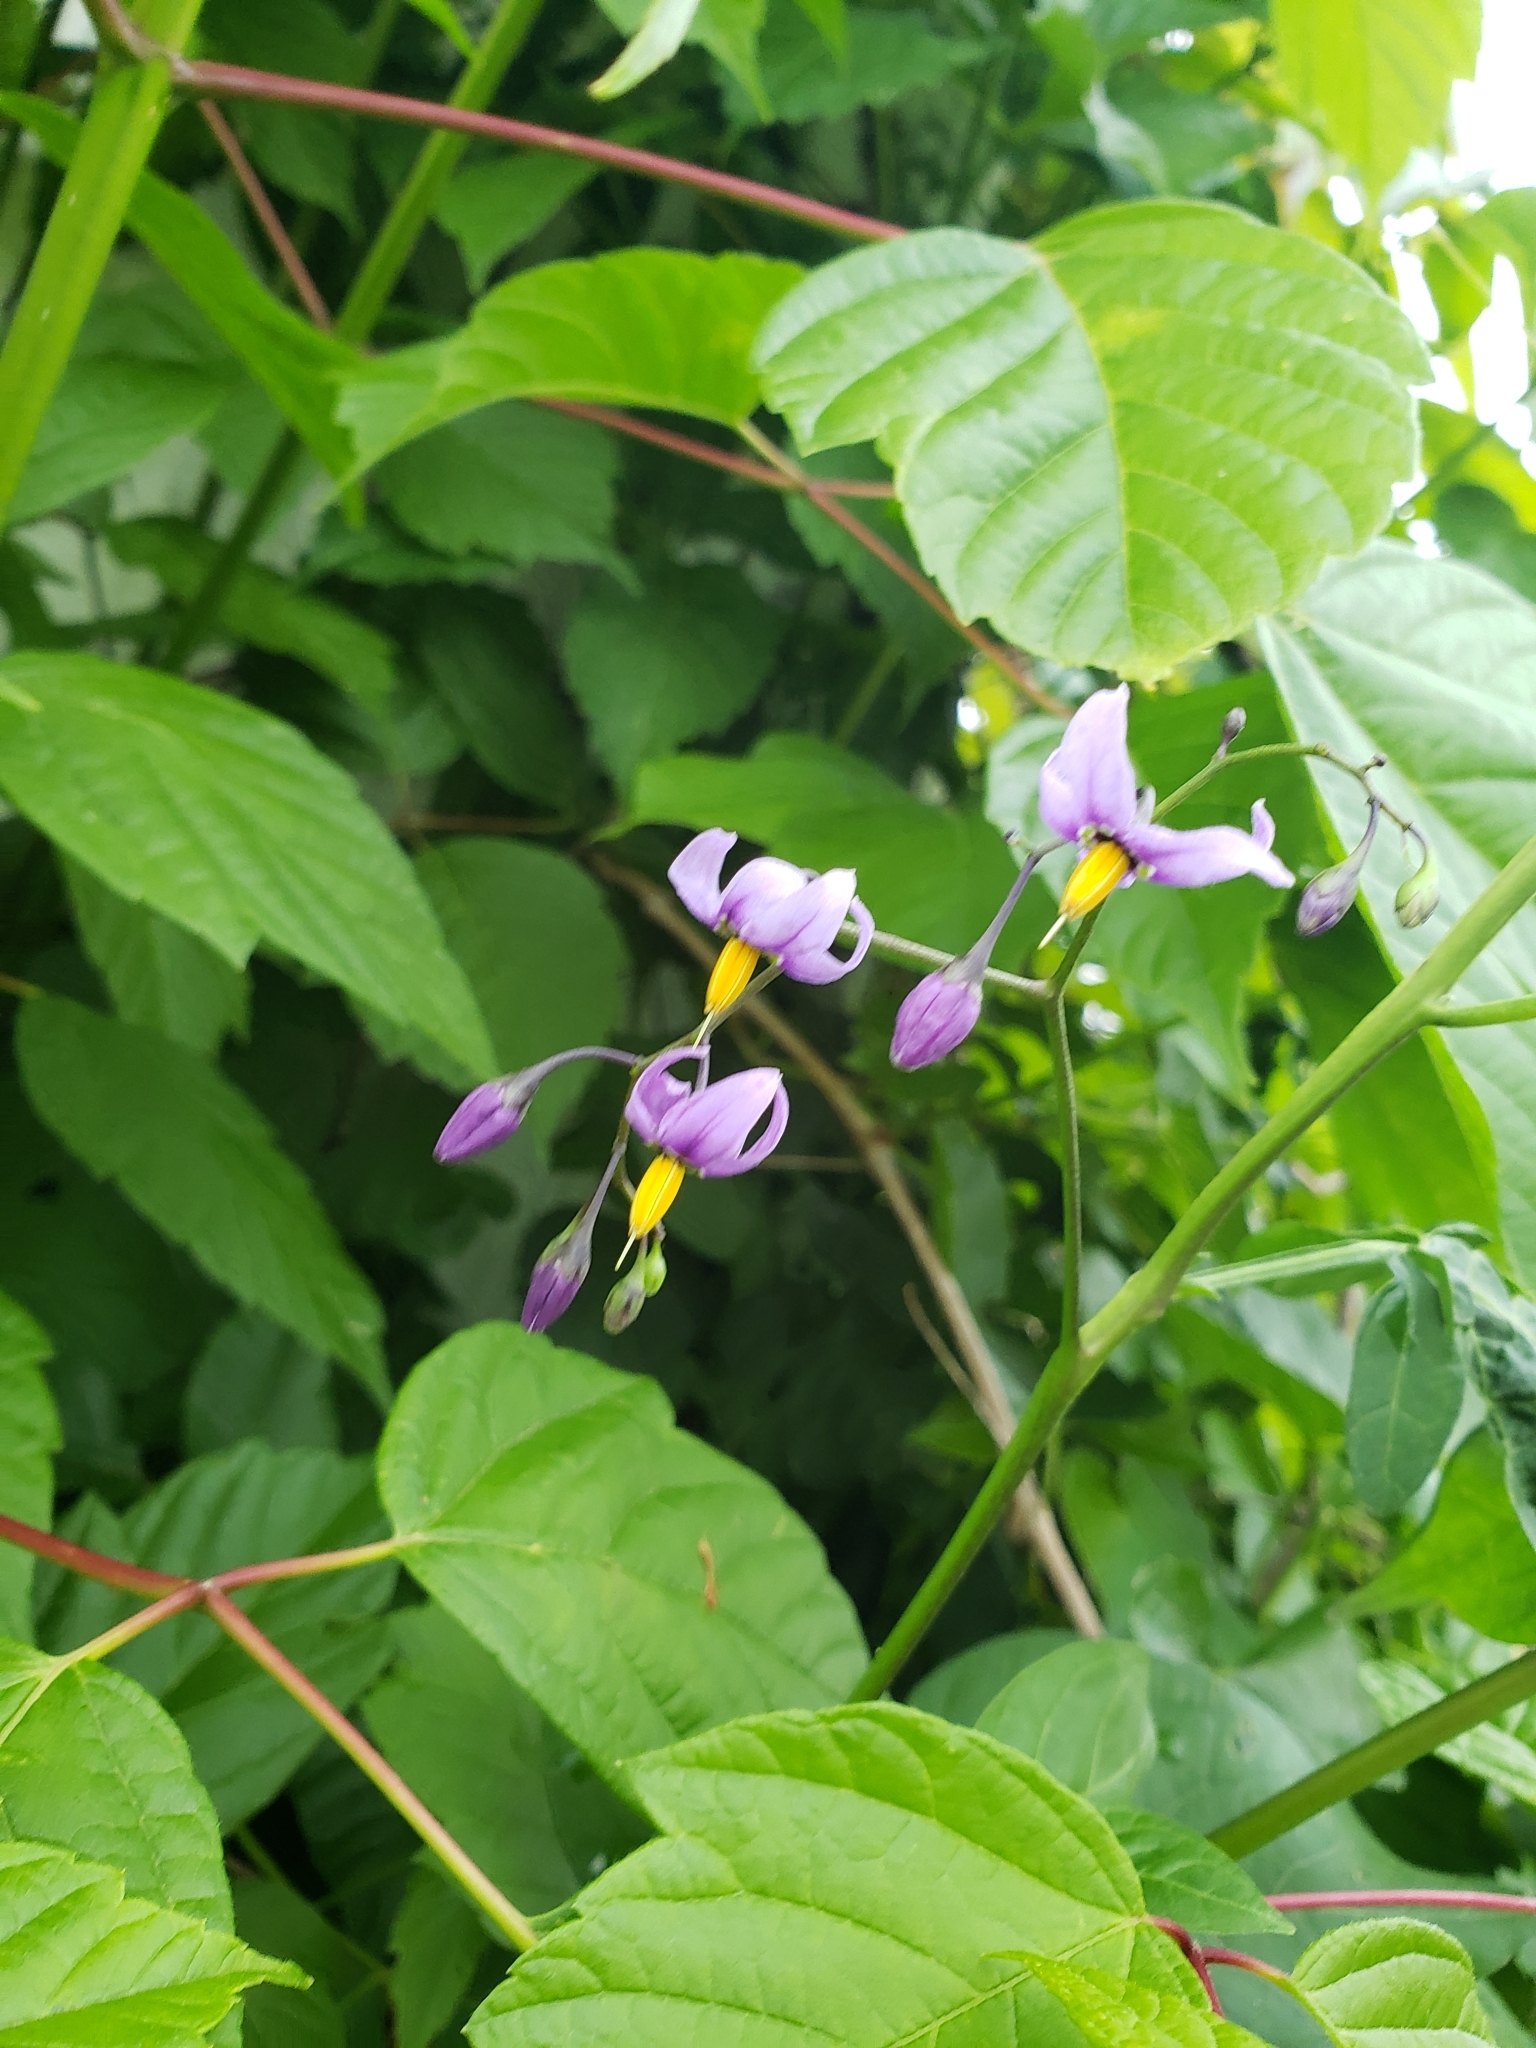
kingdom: Plantae
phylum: Tracheophyta
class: Magnoliopsida
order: Solanales
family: Solanaceae
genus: Solanum
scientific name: Solanum dulcamara
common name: Climbing nightshade
